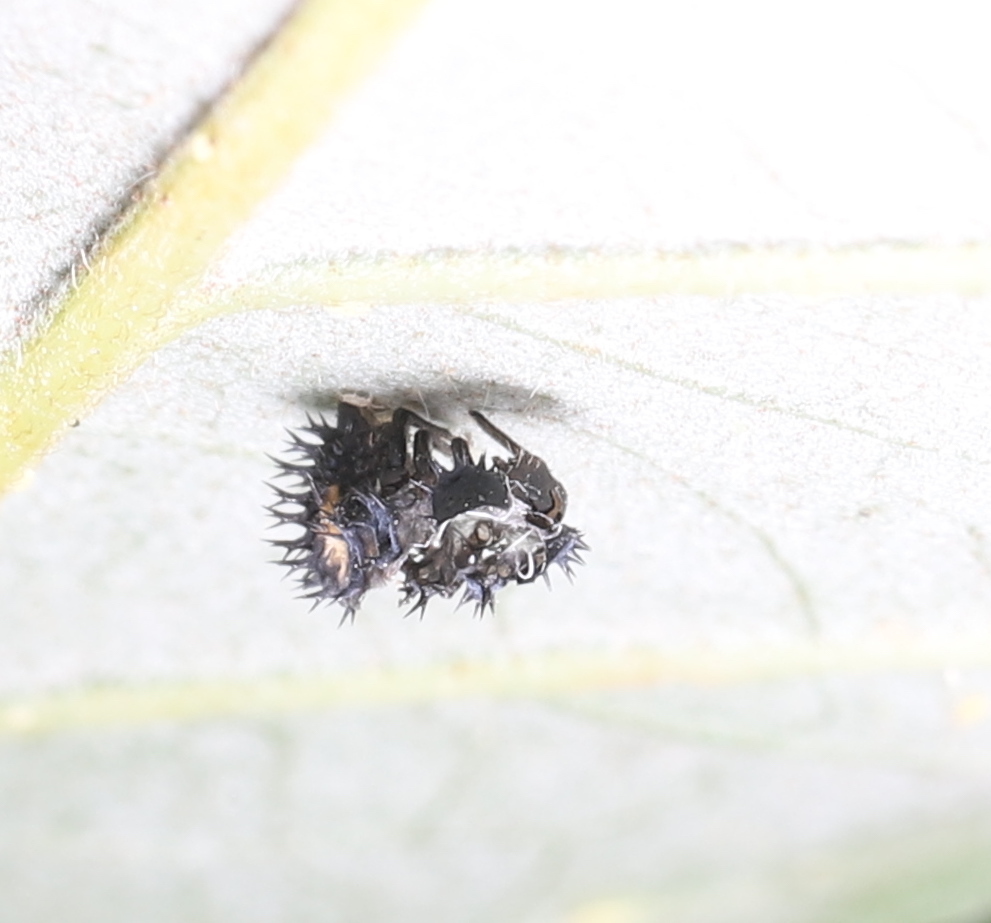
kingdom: Animalia
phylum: Arthropoda
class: Insecta
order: Coleoptera
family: Coccinellidae
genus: Harmonia
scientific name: Harmonia axyridis
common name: Harlequin ladybird
